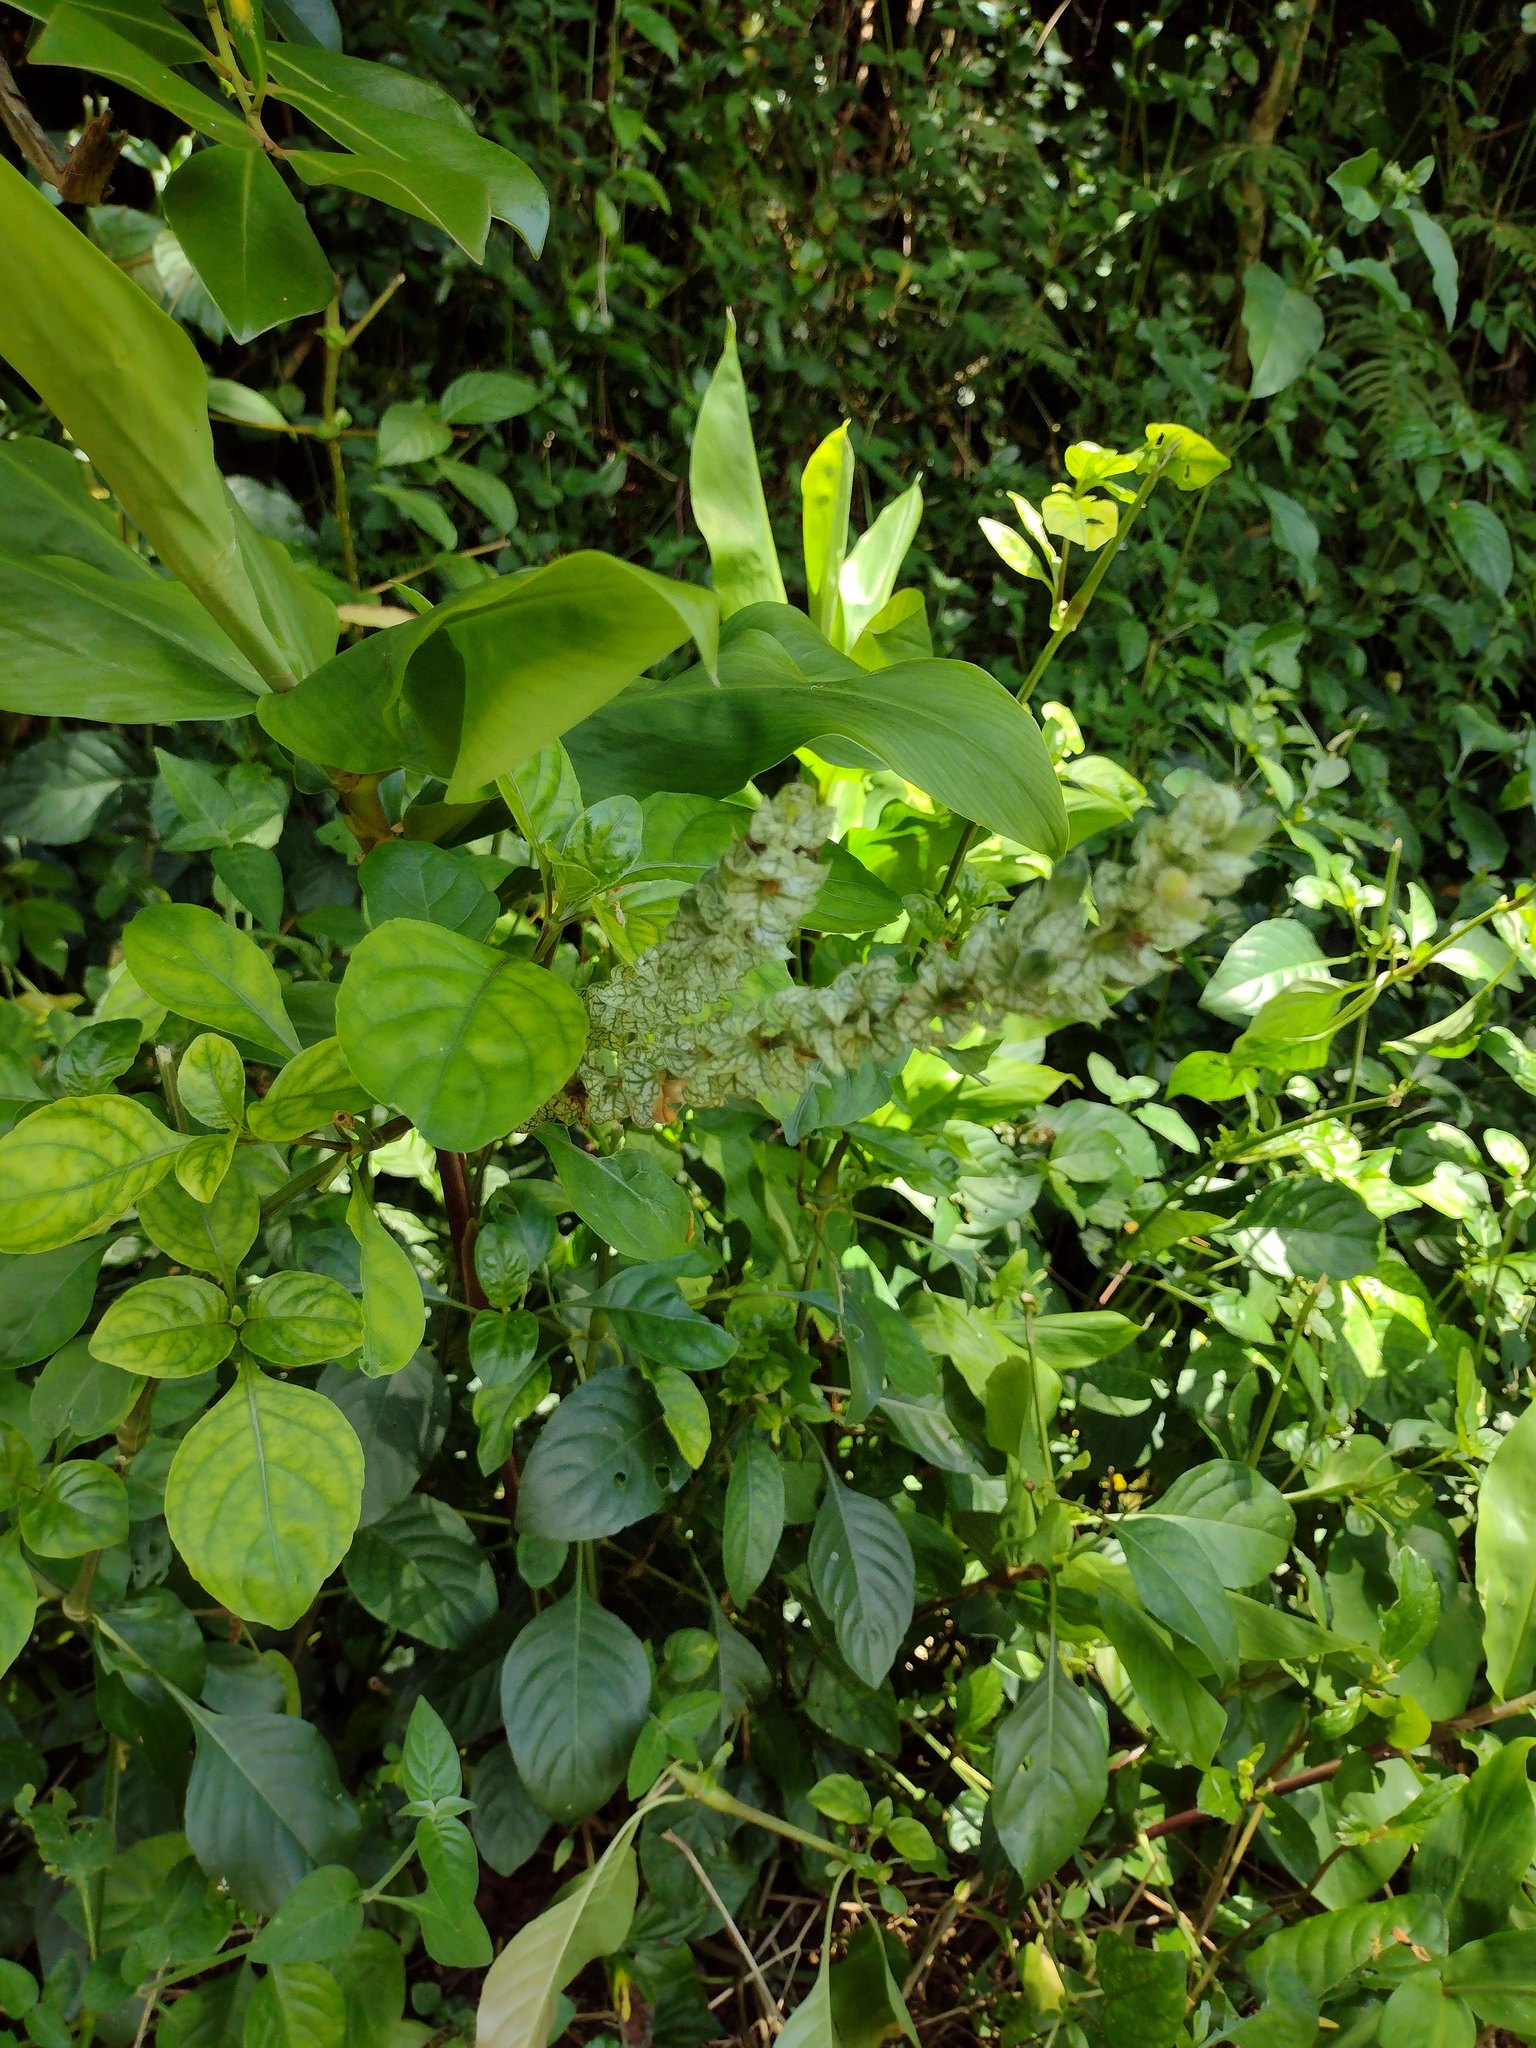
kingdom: Plantae
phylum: Tracheophyta
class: Magnoliopsida
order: Lamiales
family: Acanthaceae
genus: Justicia
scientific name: Justicia betonica
